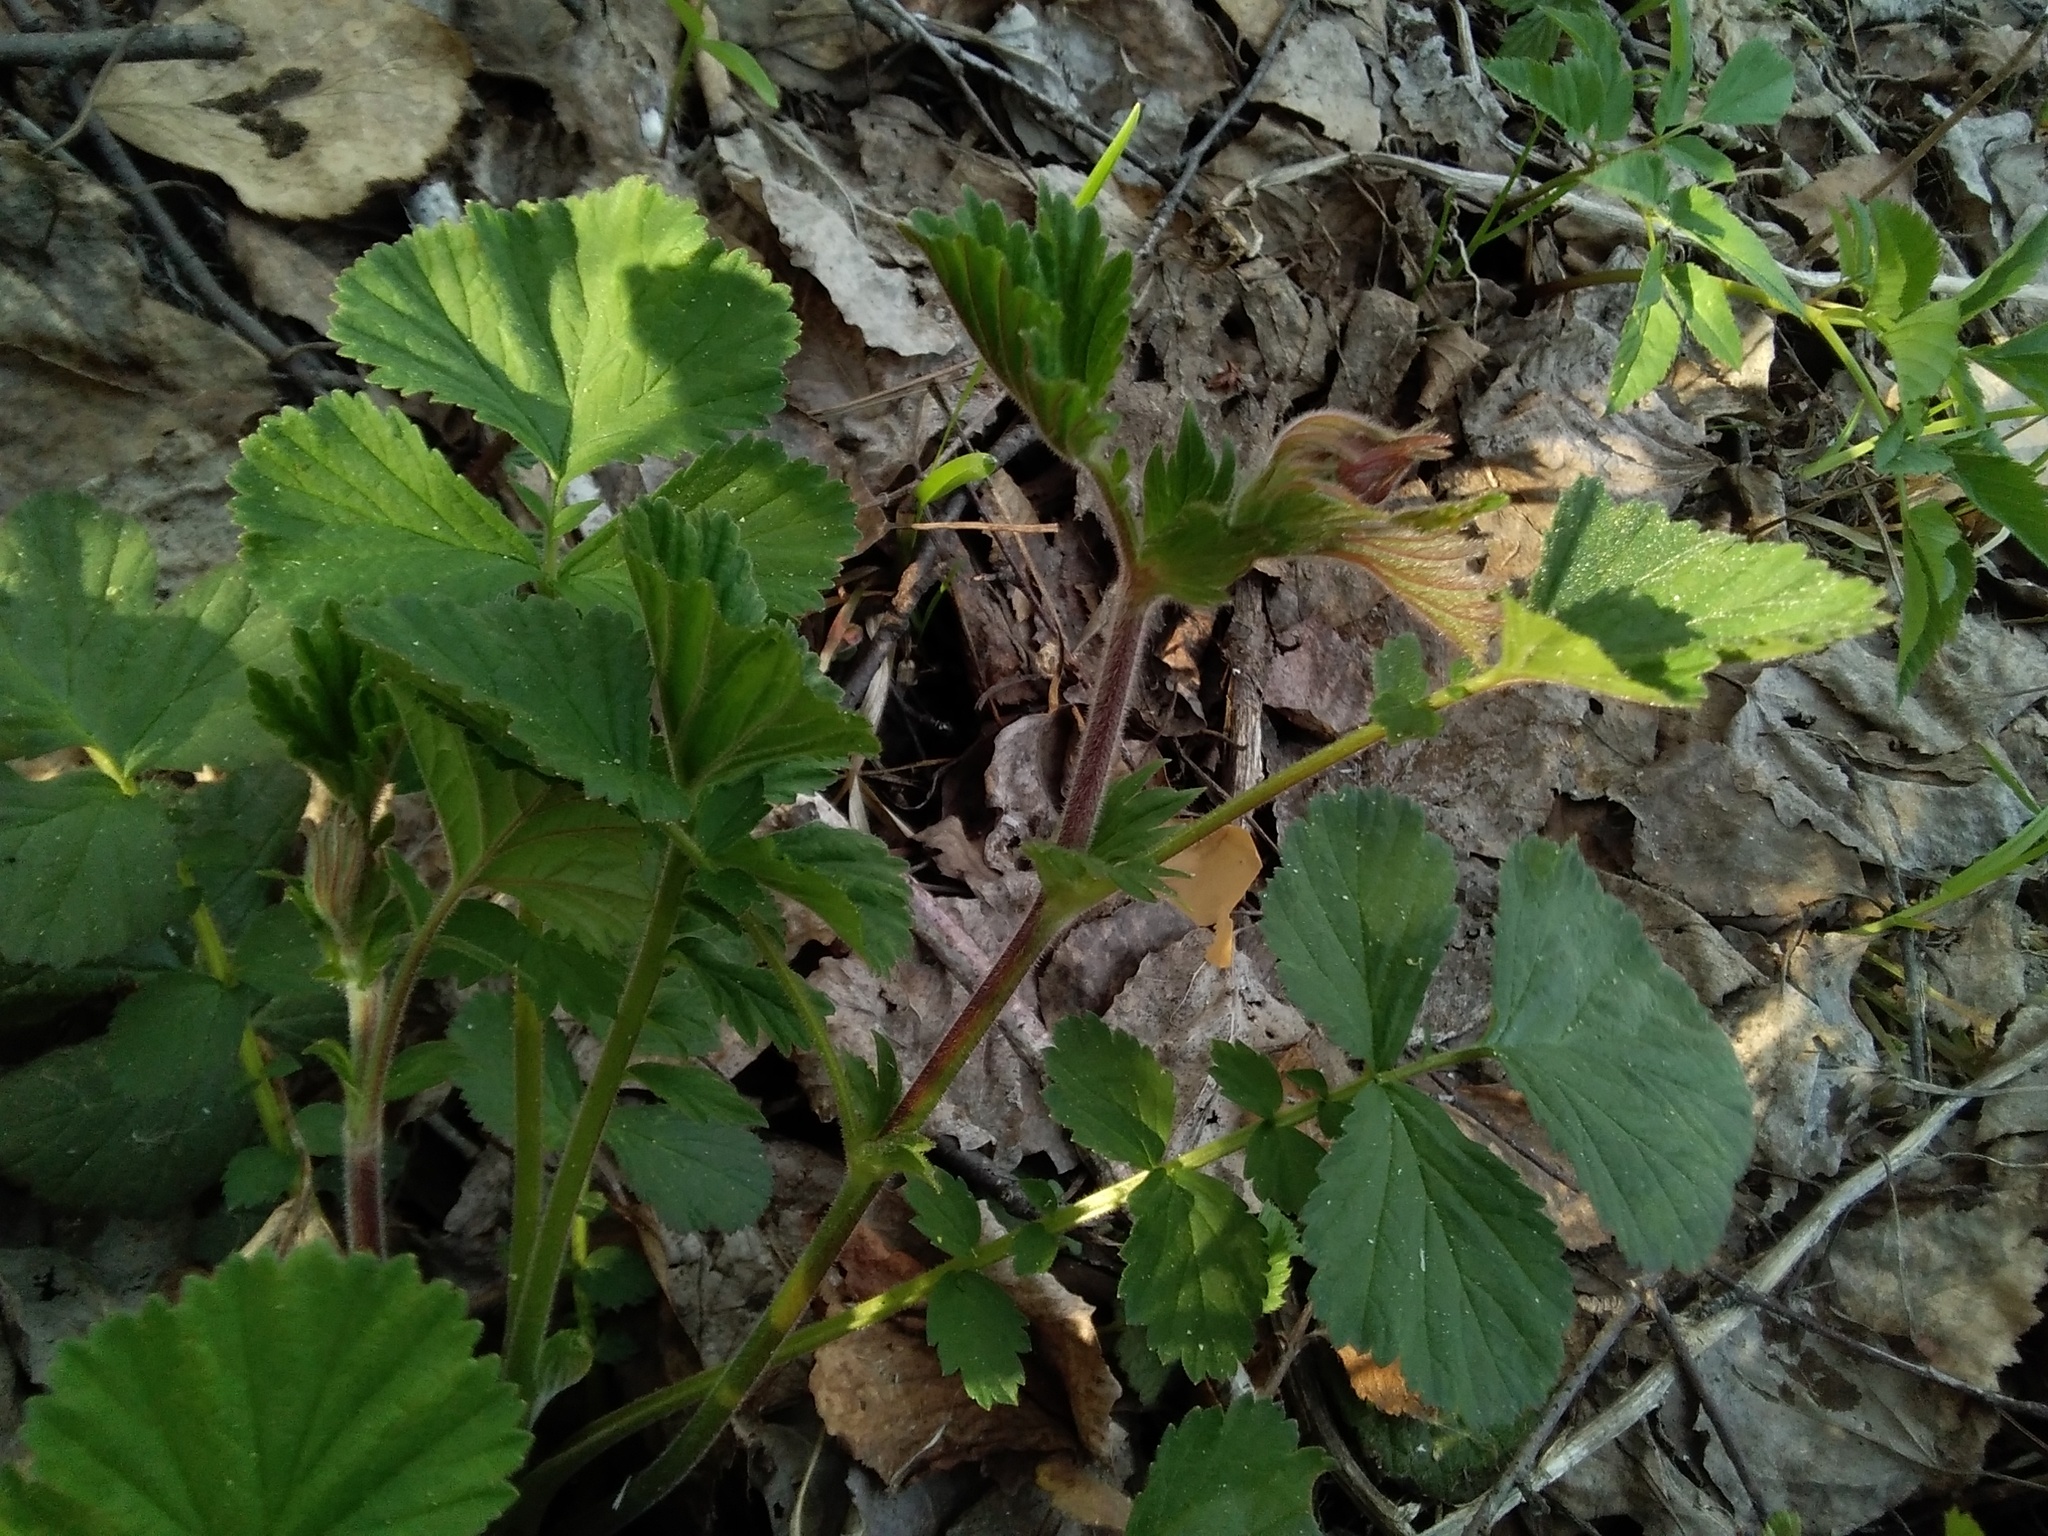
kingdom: Plantae
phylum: Tracheophyta
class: Magnoliopsida
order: Rosales
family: Rosaceae
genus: Geum
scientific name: Geum rivale
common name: Water avens
